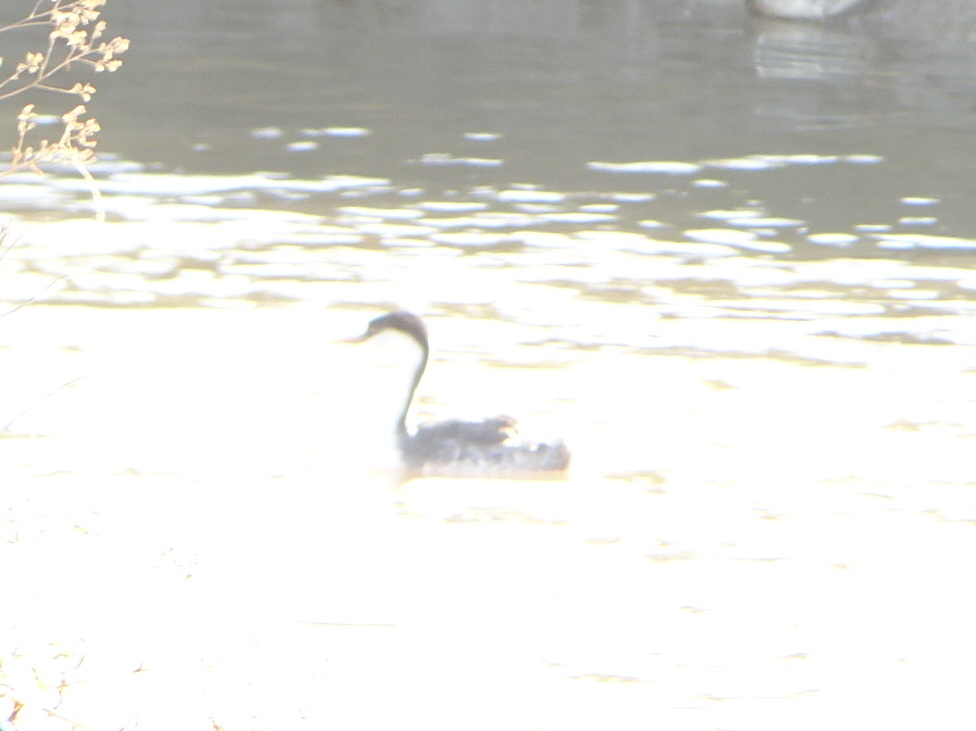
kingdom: Animalia
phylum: Chordata
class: Aves
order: Podicipediformes
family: Podicipedidae
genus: Aechmophorus
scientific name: Aechmophorus occidentalis
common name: Western grebe
